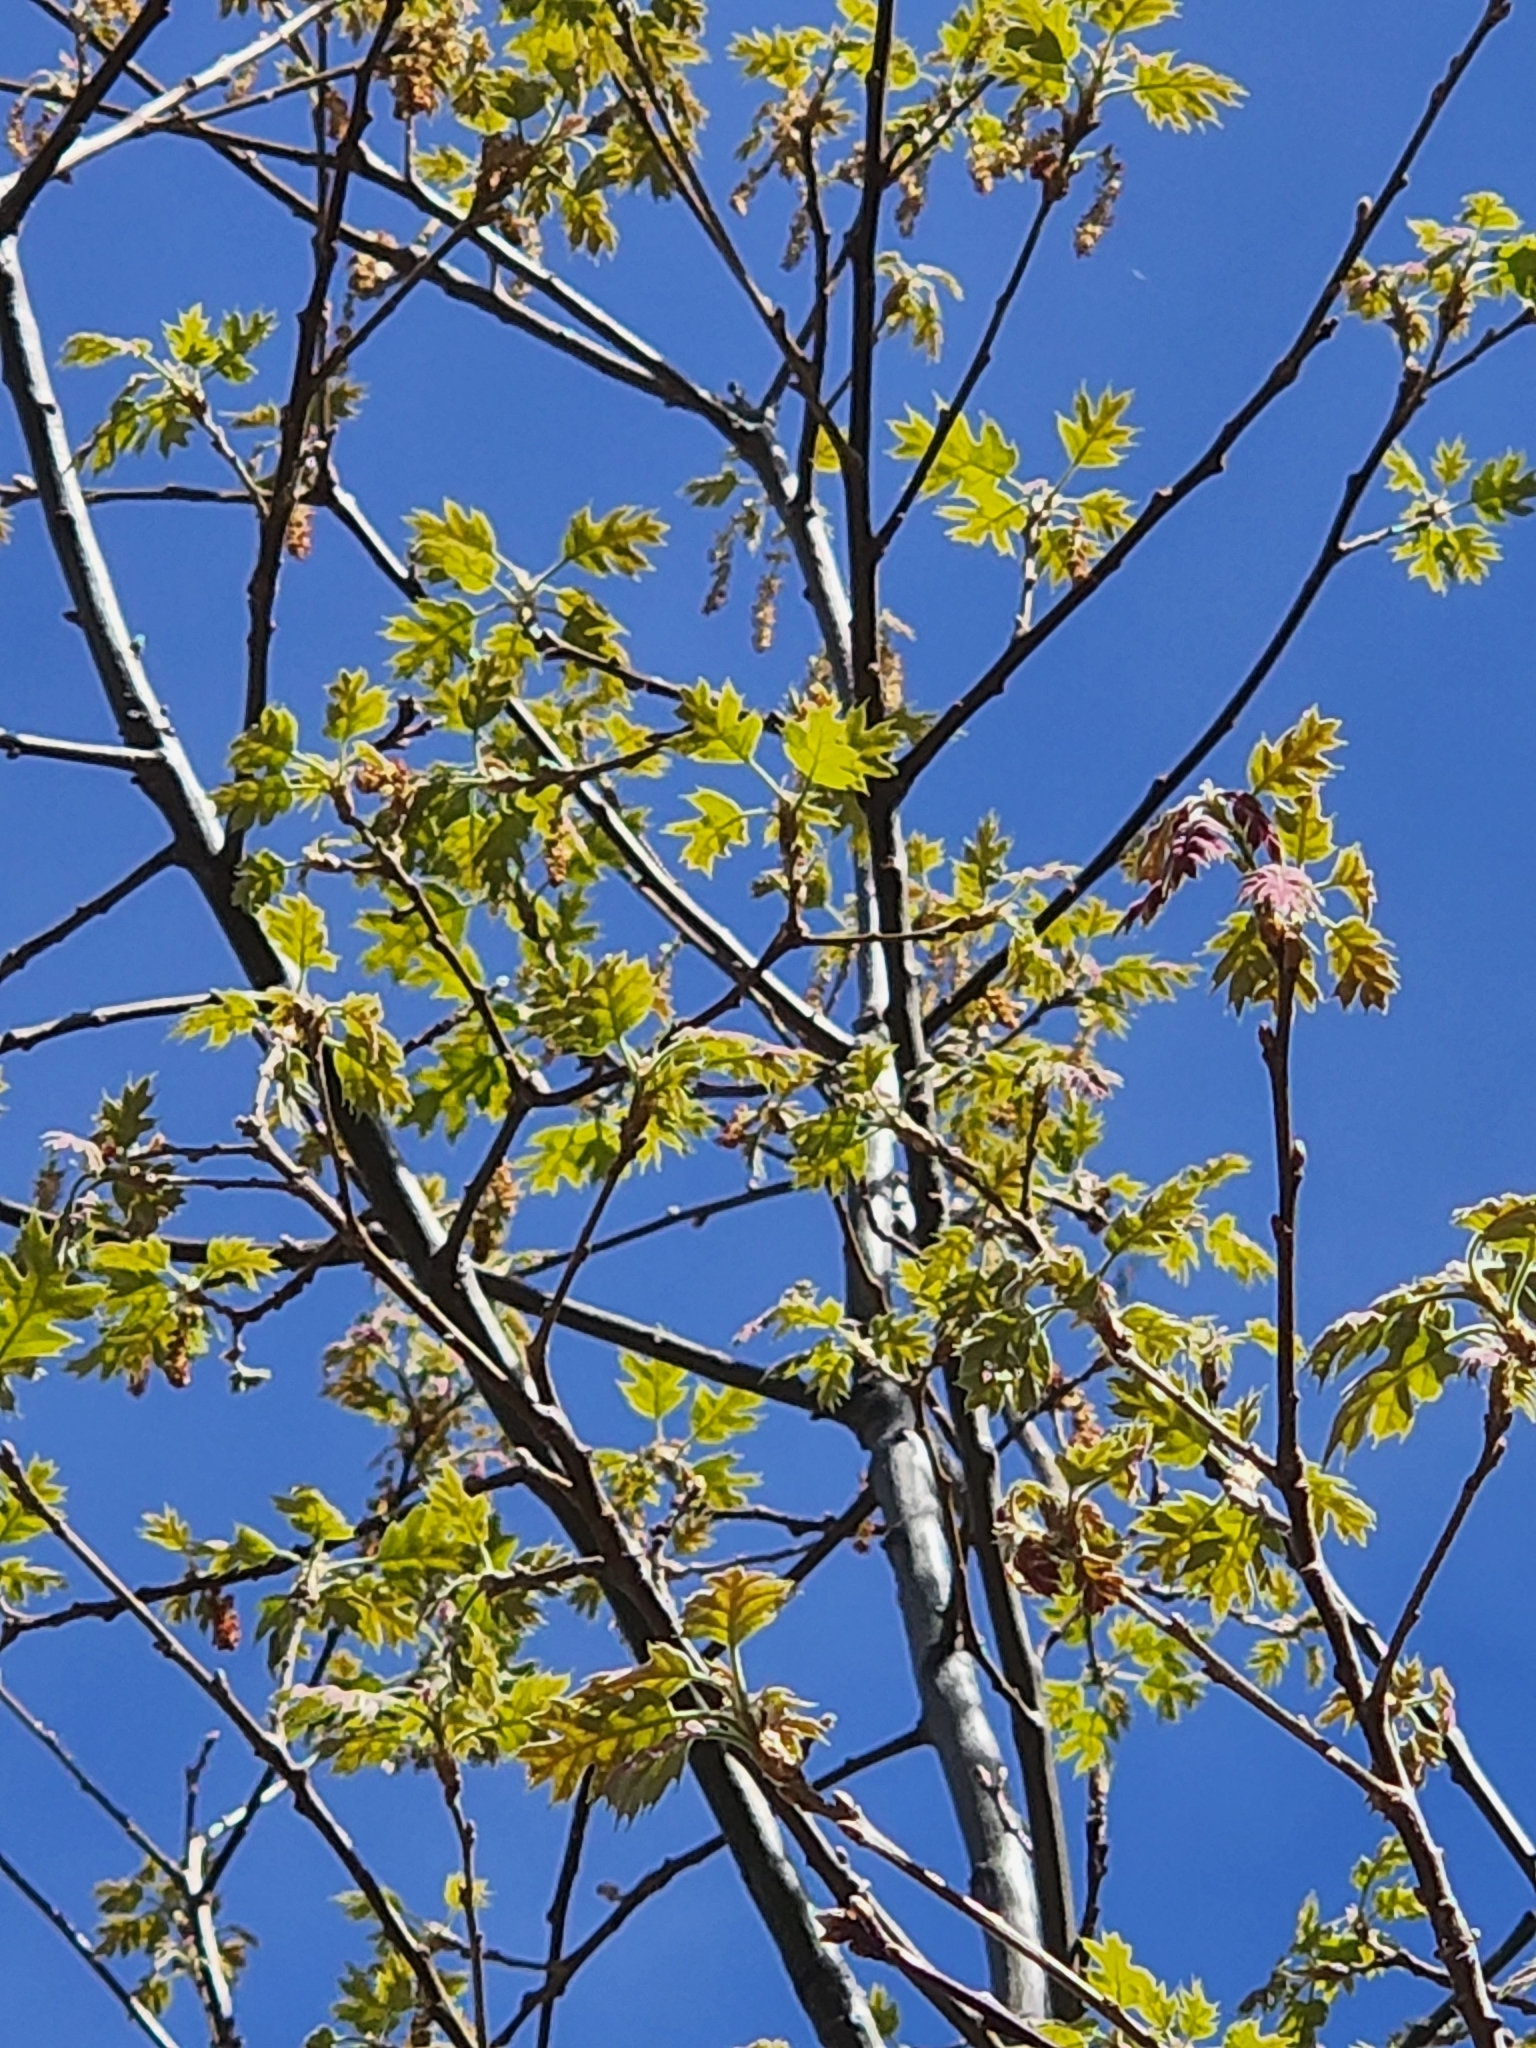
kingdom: Plantae
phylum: Tracheophyta
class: Magnoliopsida
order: Fagales
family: Fagaceae
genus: Quercus
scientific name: Quercus kelloggii
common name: California black oak
